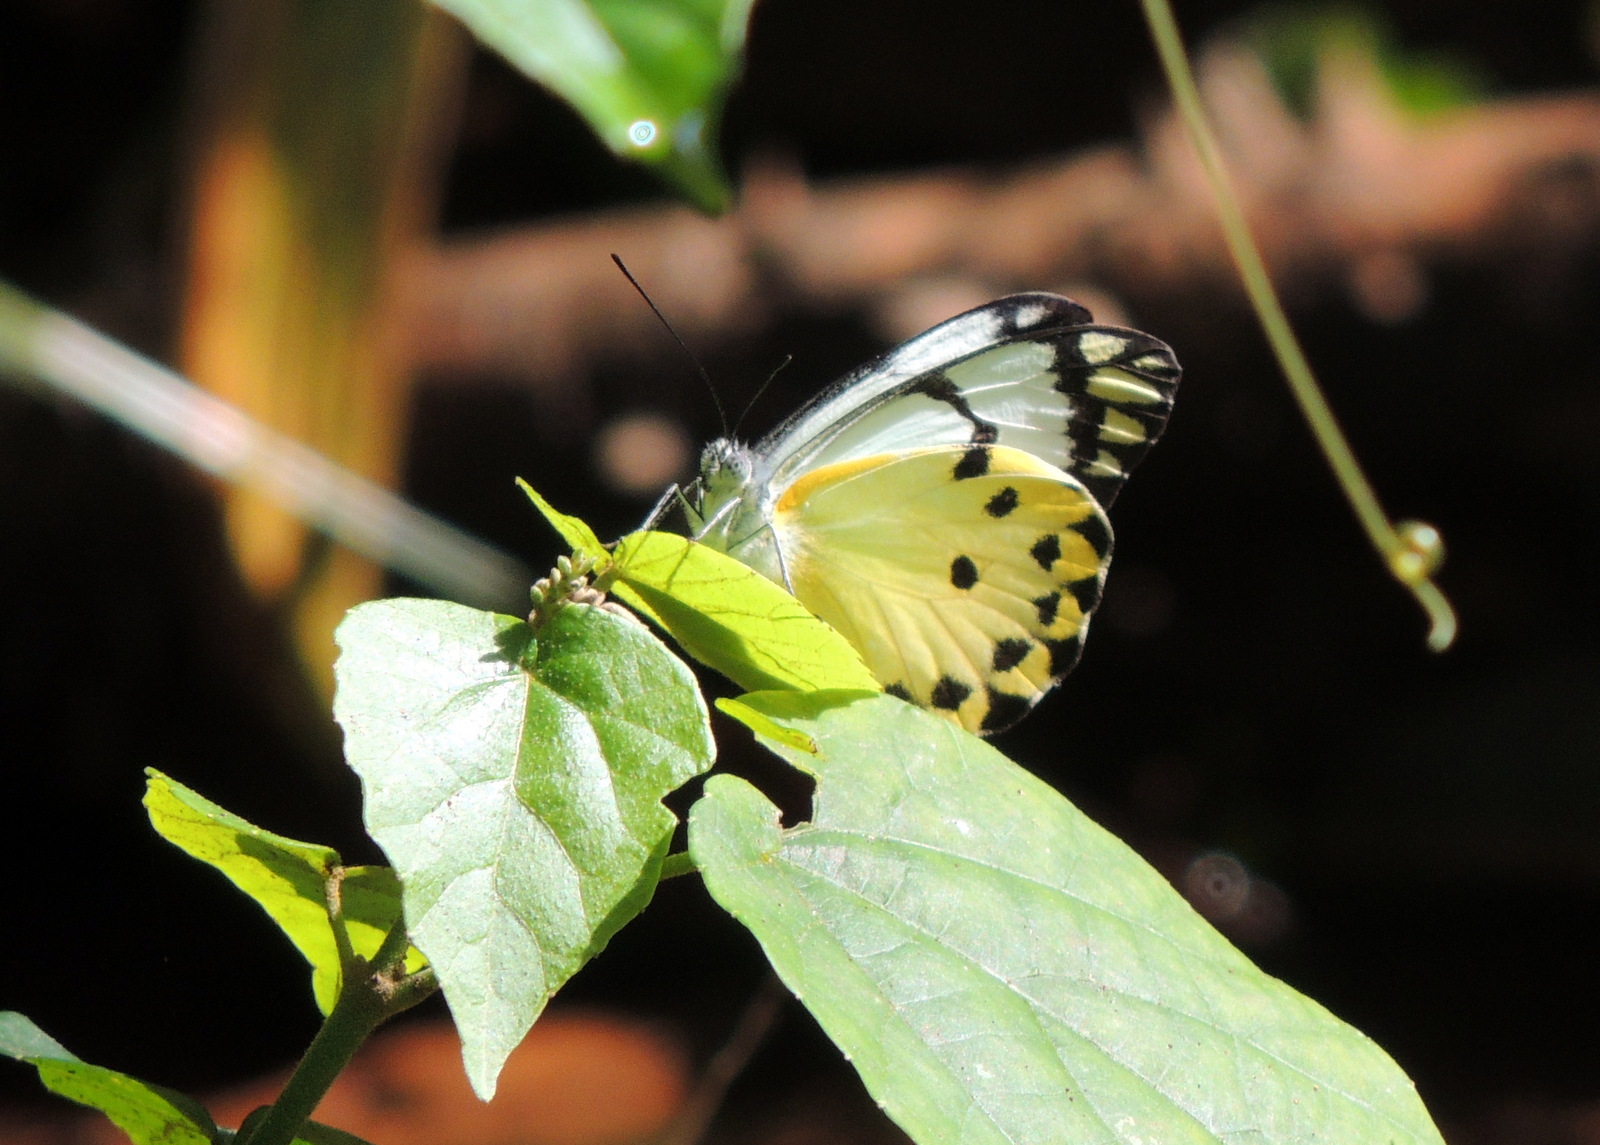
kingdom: Animalia
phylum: Arthropoda
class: Insecta
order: Lepidoptera
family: Pieridae
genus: Belenois
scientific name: Belenois calypso
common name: Calypso caper white
